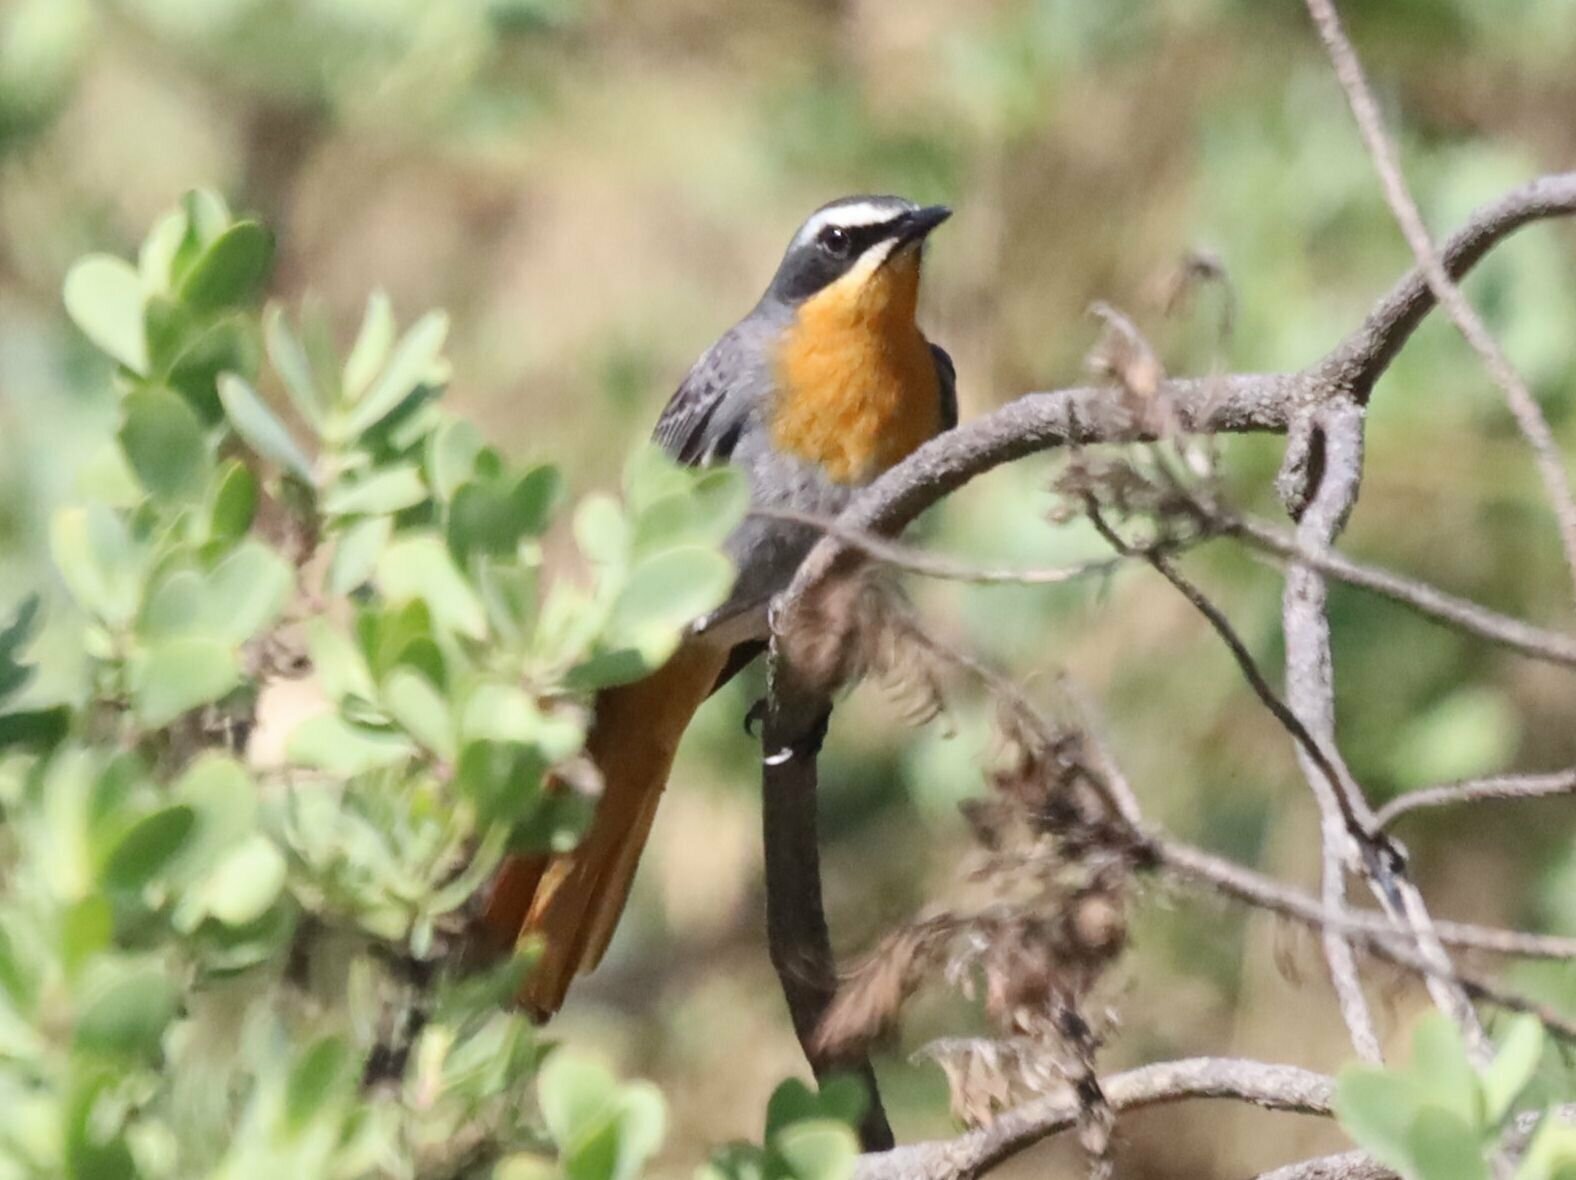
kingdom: Animalia
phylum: Chordata
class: Aves
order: Passeriformes
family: Muscicapidae
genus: Cossypha
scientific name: Cossypha caffra
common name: Cape robin-chat
